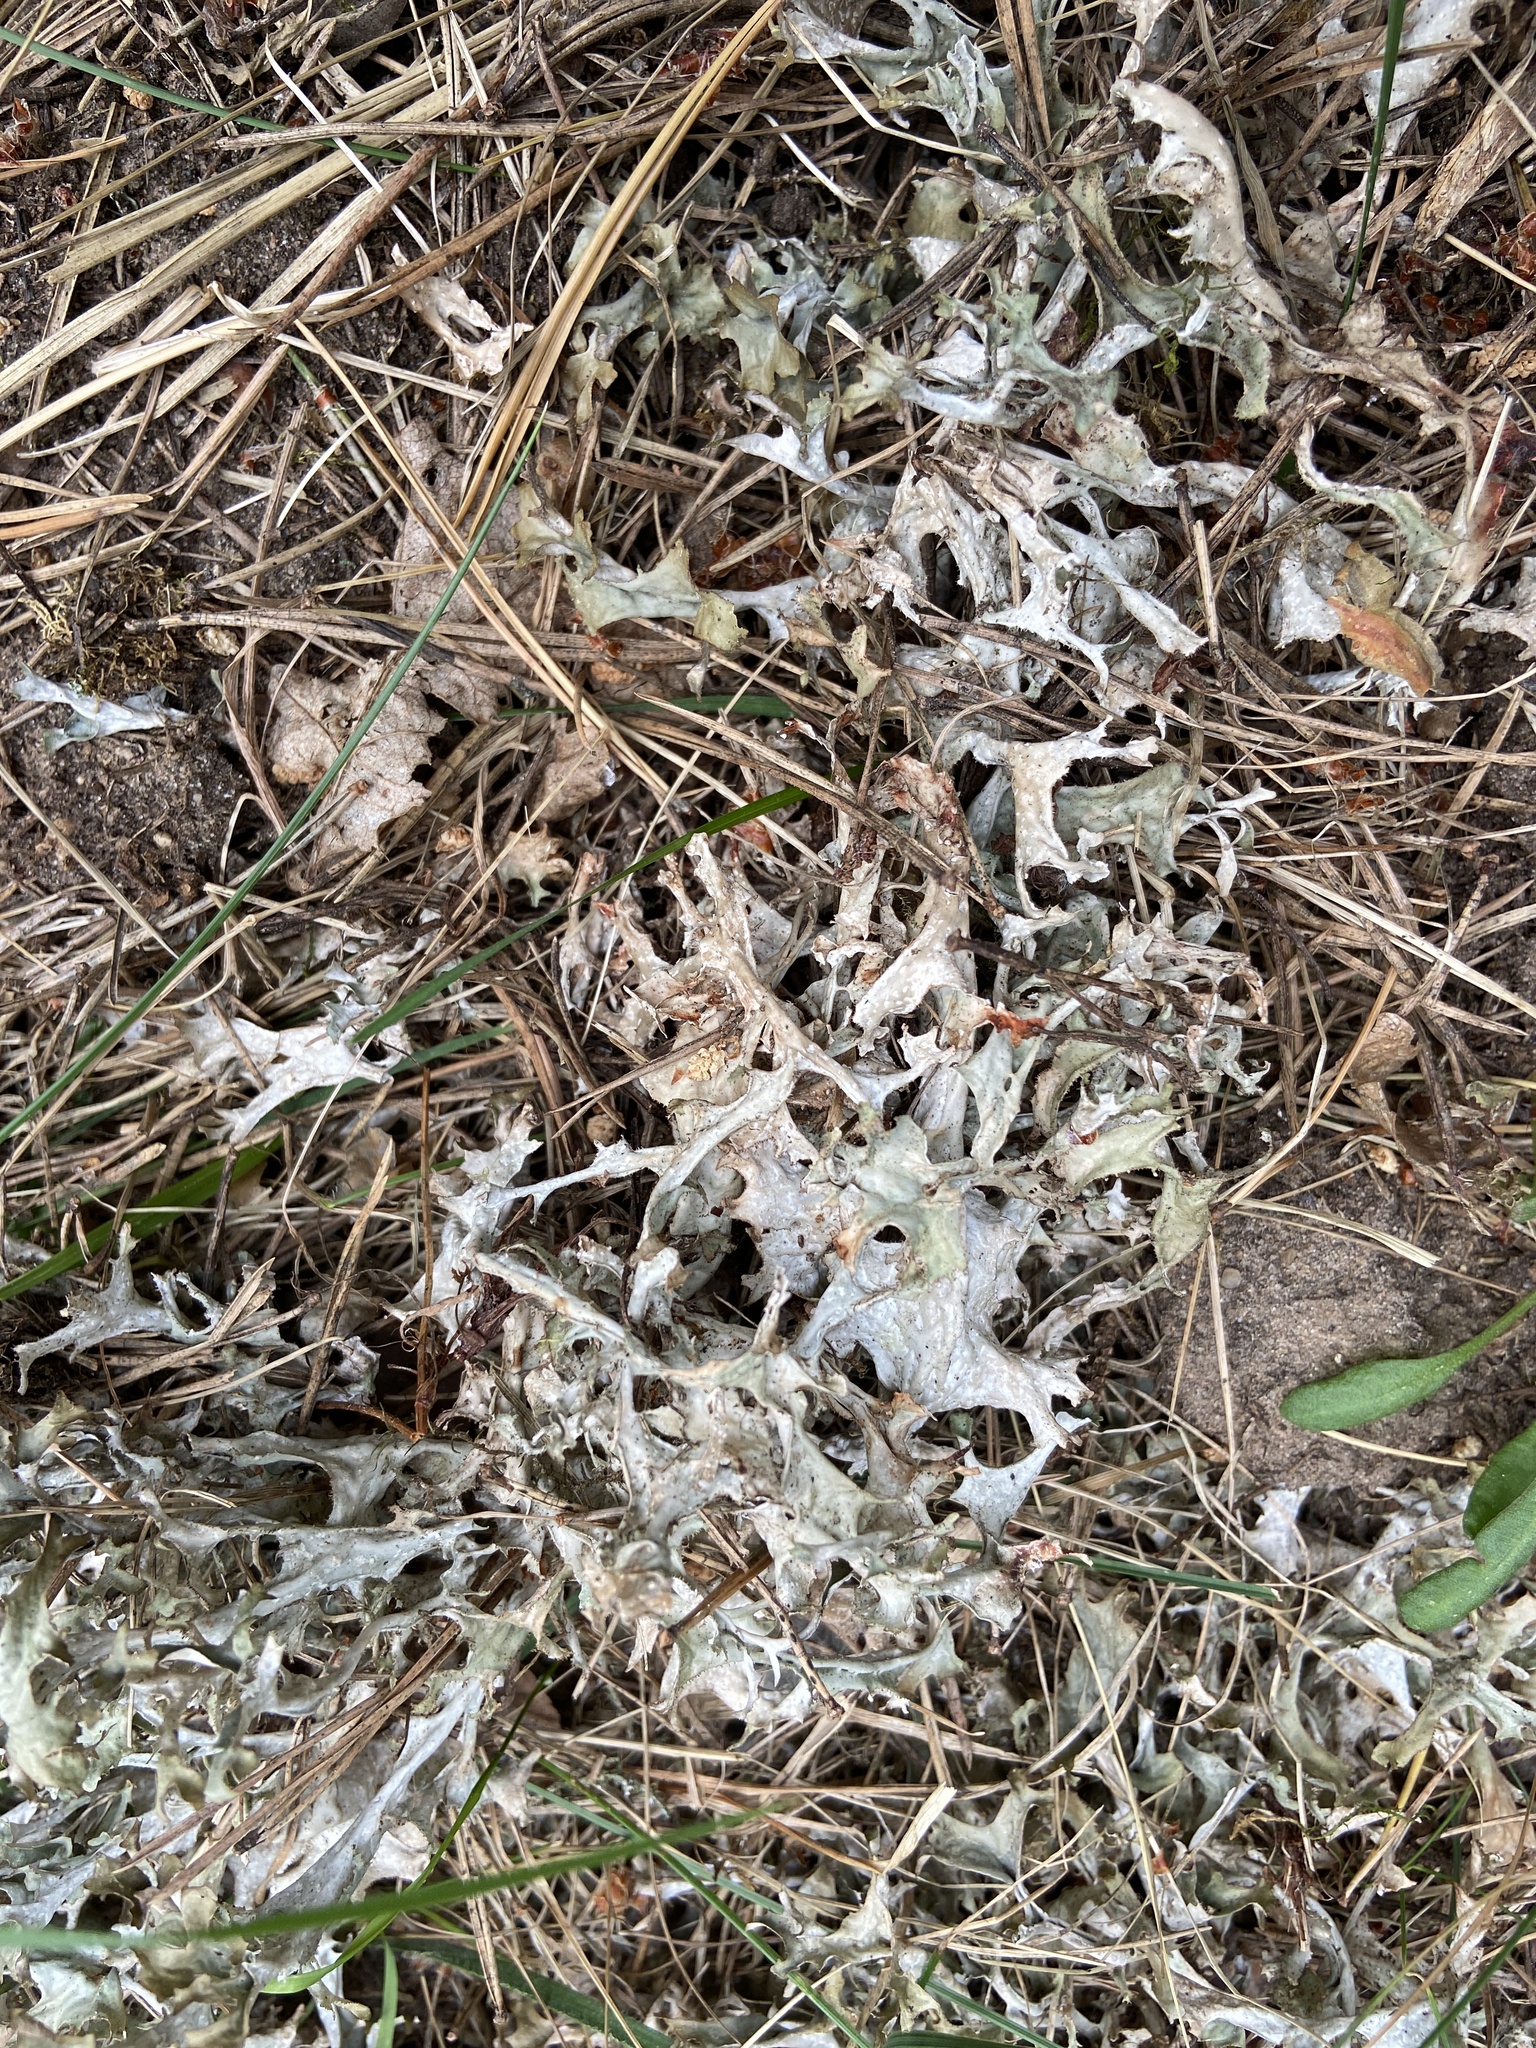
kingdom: Fungi
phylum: Ascomycota
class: Lecanoromycetes
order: Lecanorales
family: Parmeliaceae
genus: Cetraria
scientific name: Cetraria islandica
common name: Iceland lichen
